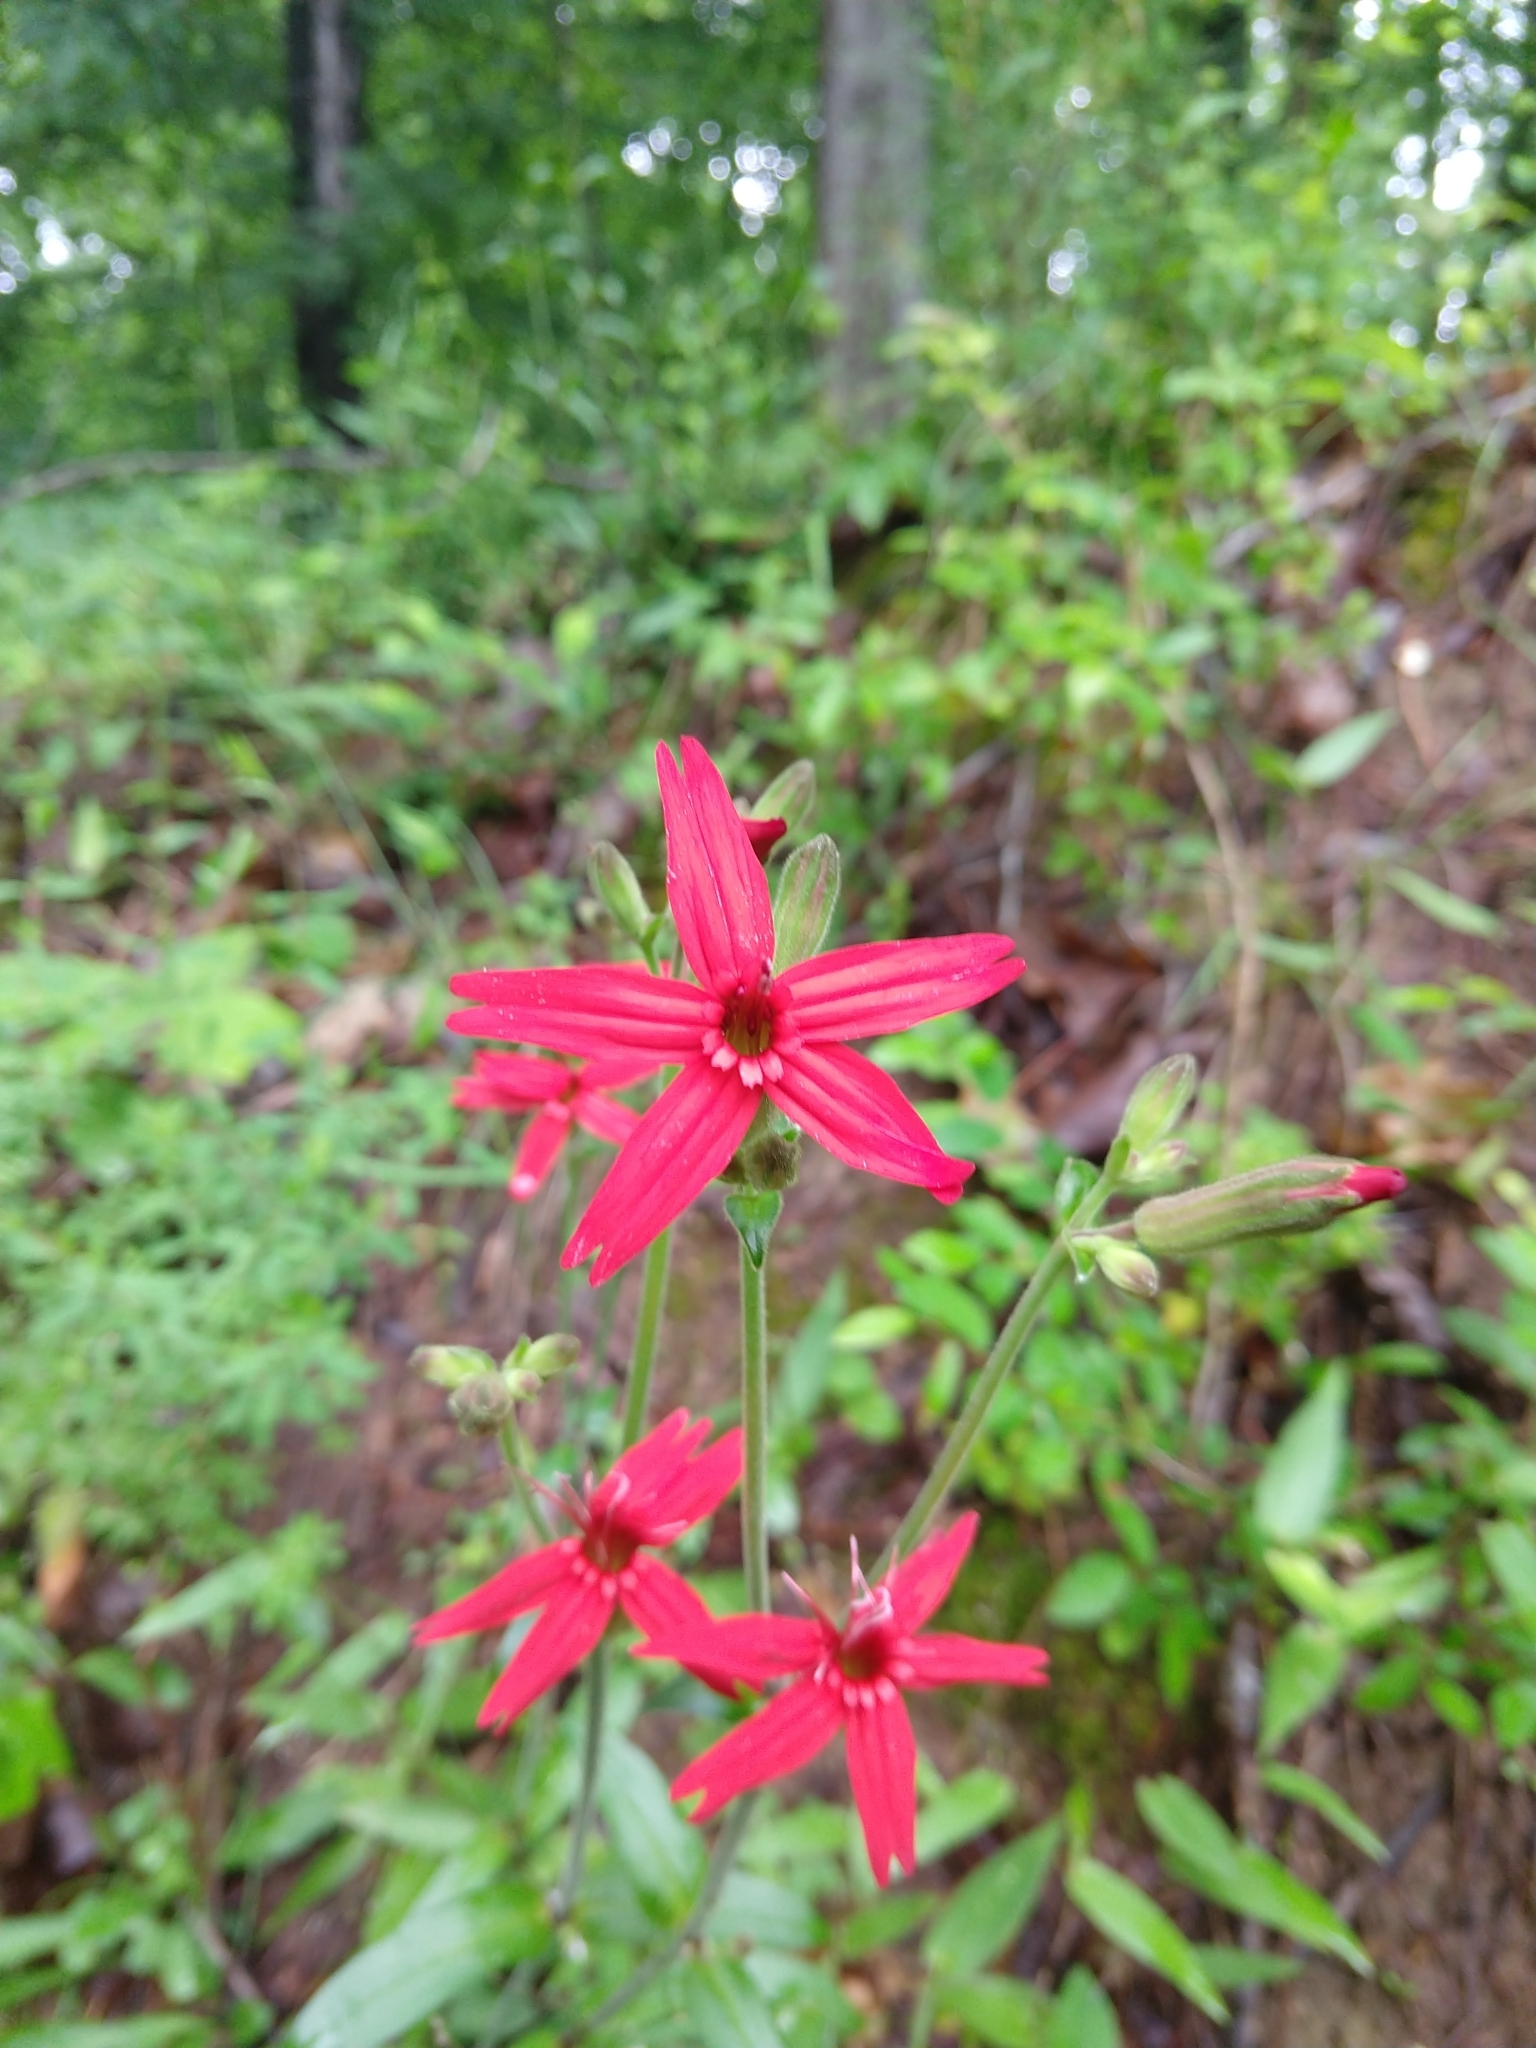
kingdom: Plantae
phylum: Tracheophyta
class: Magnoliopsida
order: Caryophyllales
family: Caryophyllaceae
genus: Silene
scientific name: Silene virginica
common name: Fire-pink
